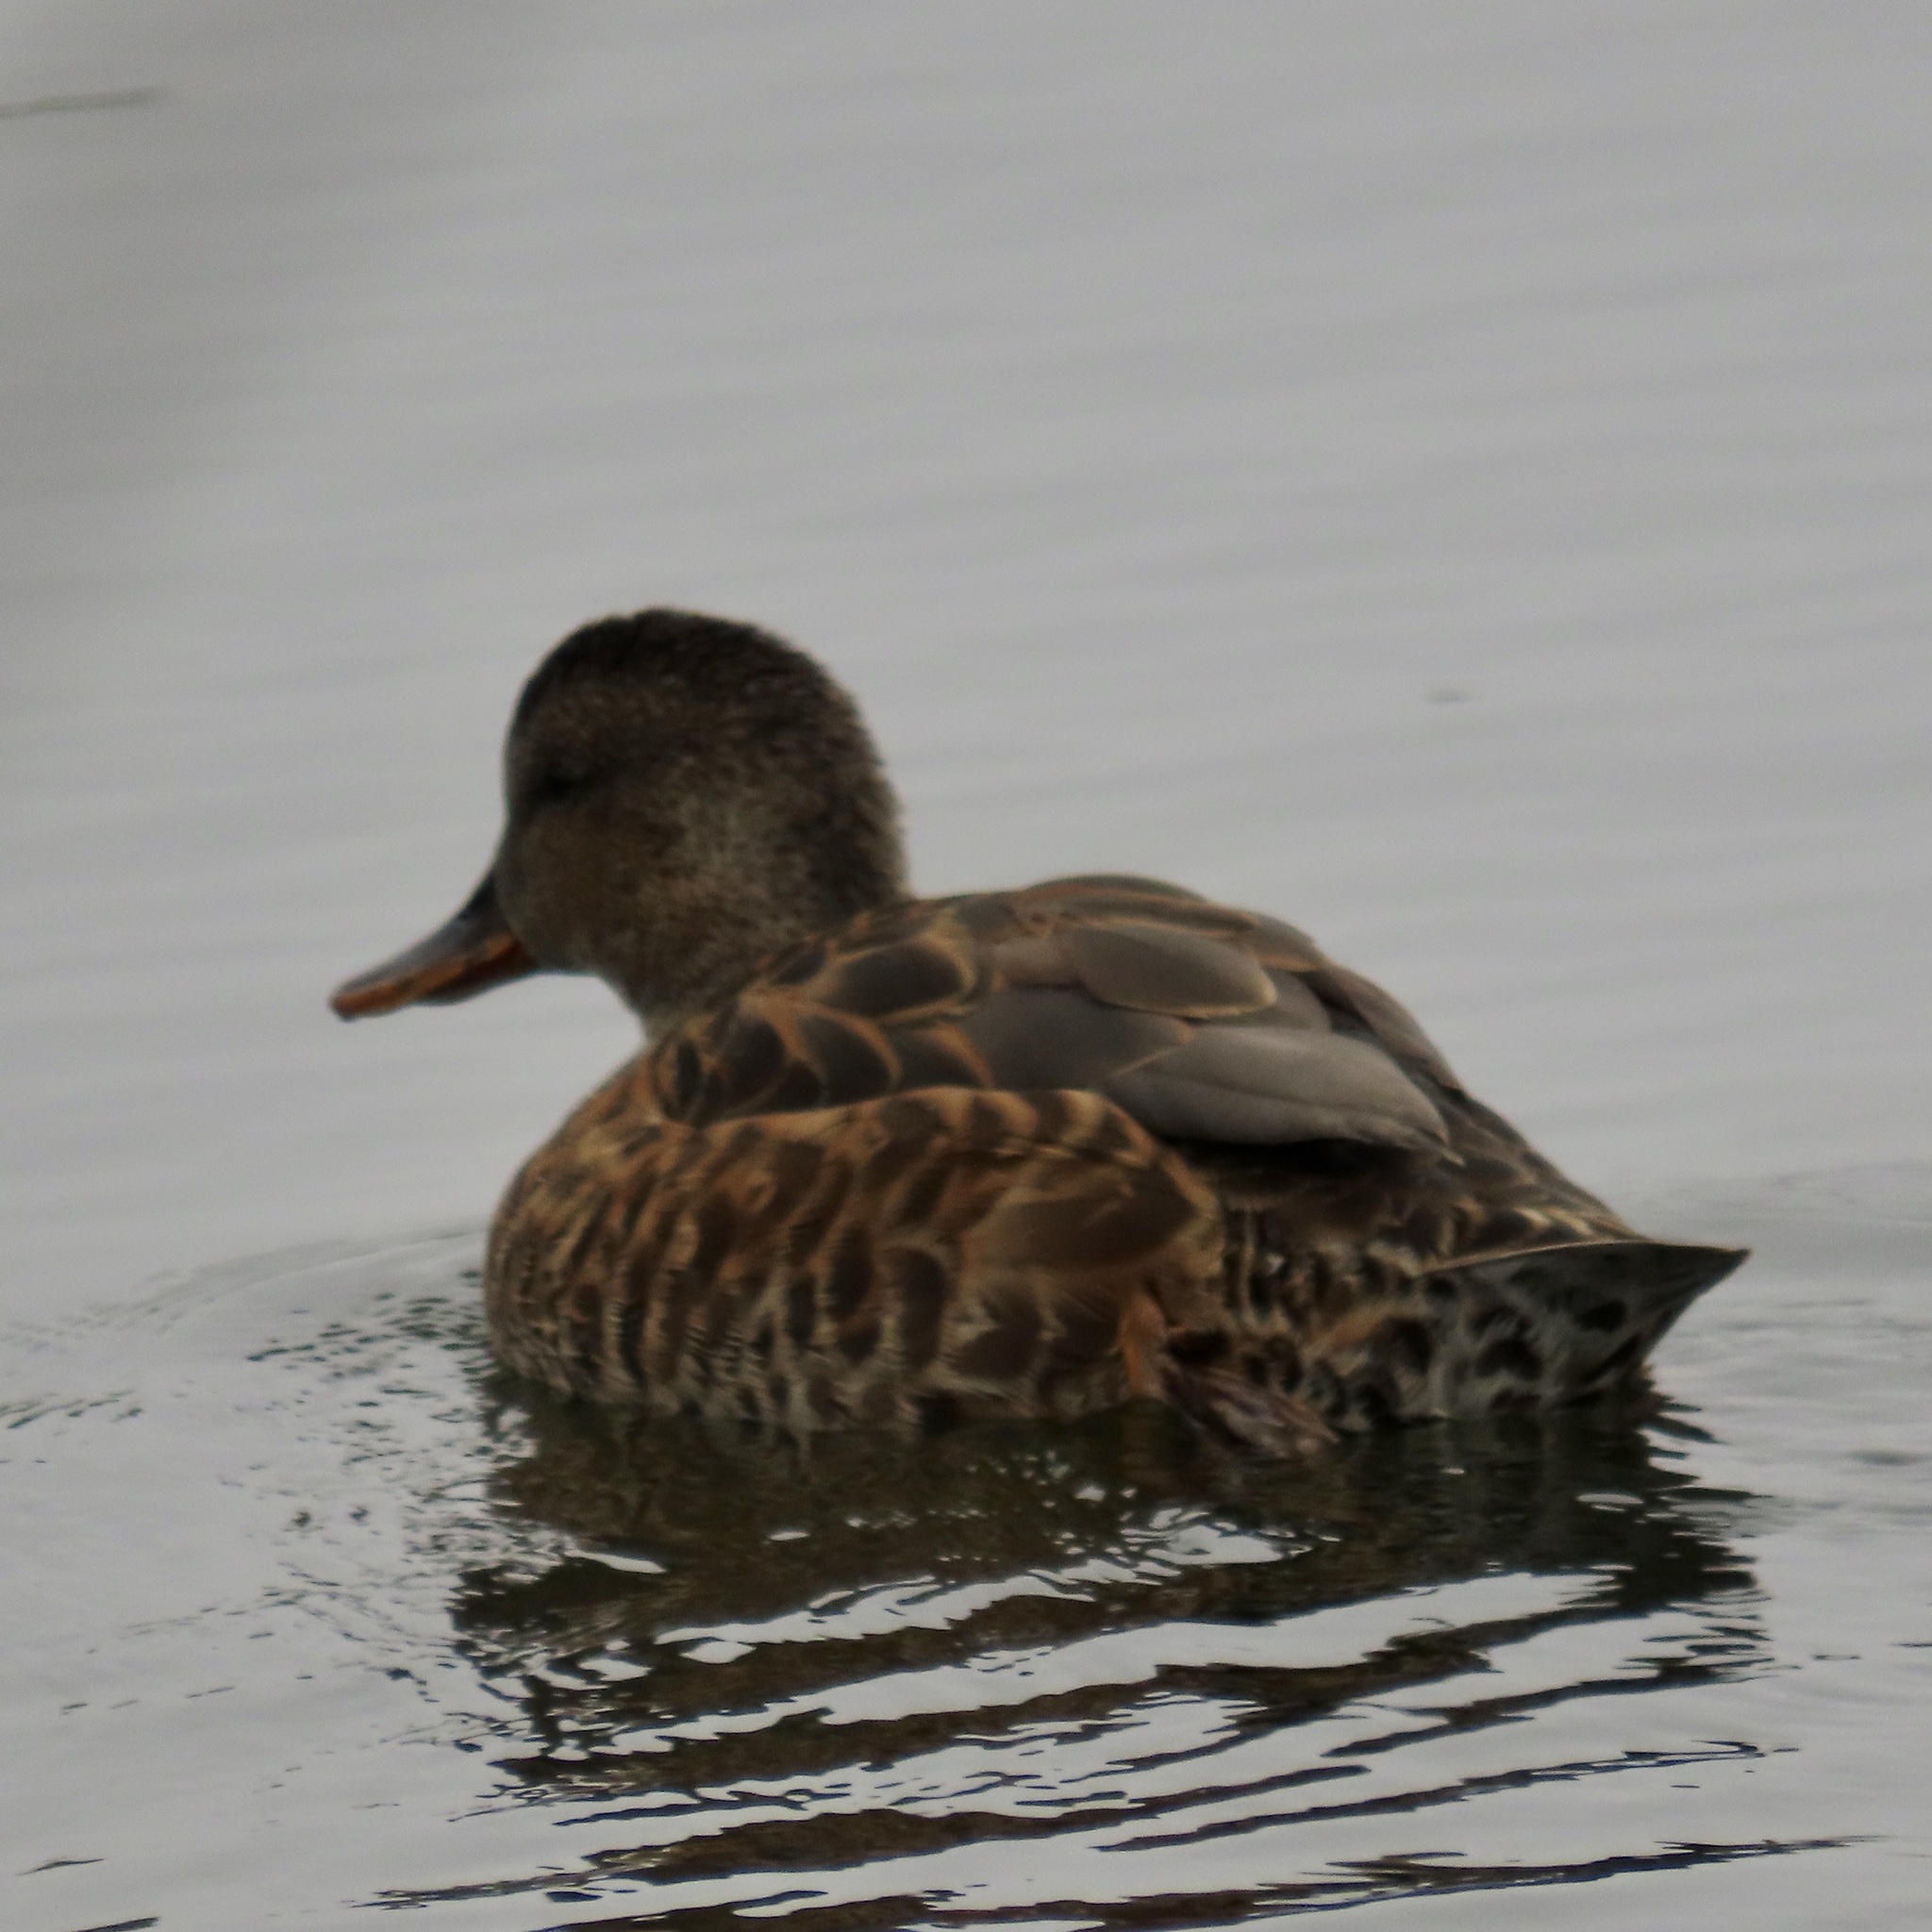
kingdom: Animalia
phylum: Chordata
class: Aves
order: Anseriformes
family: Anatidae
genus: Mareca
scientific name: Mareca strepera
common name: Gadwall
